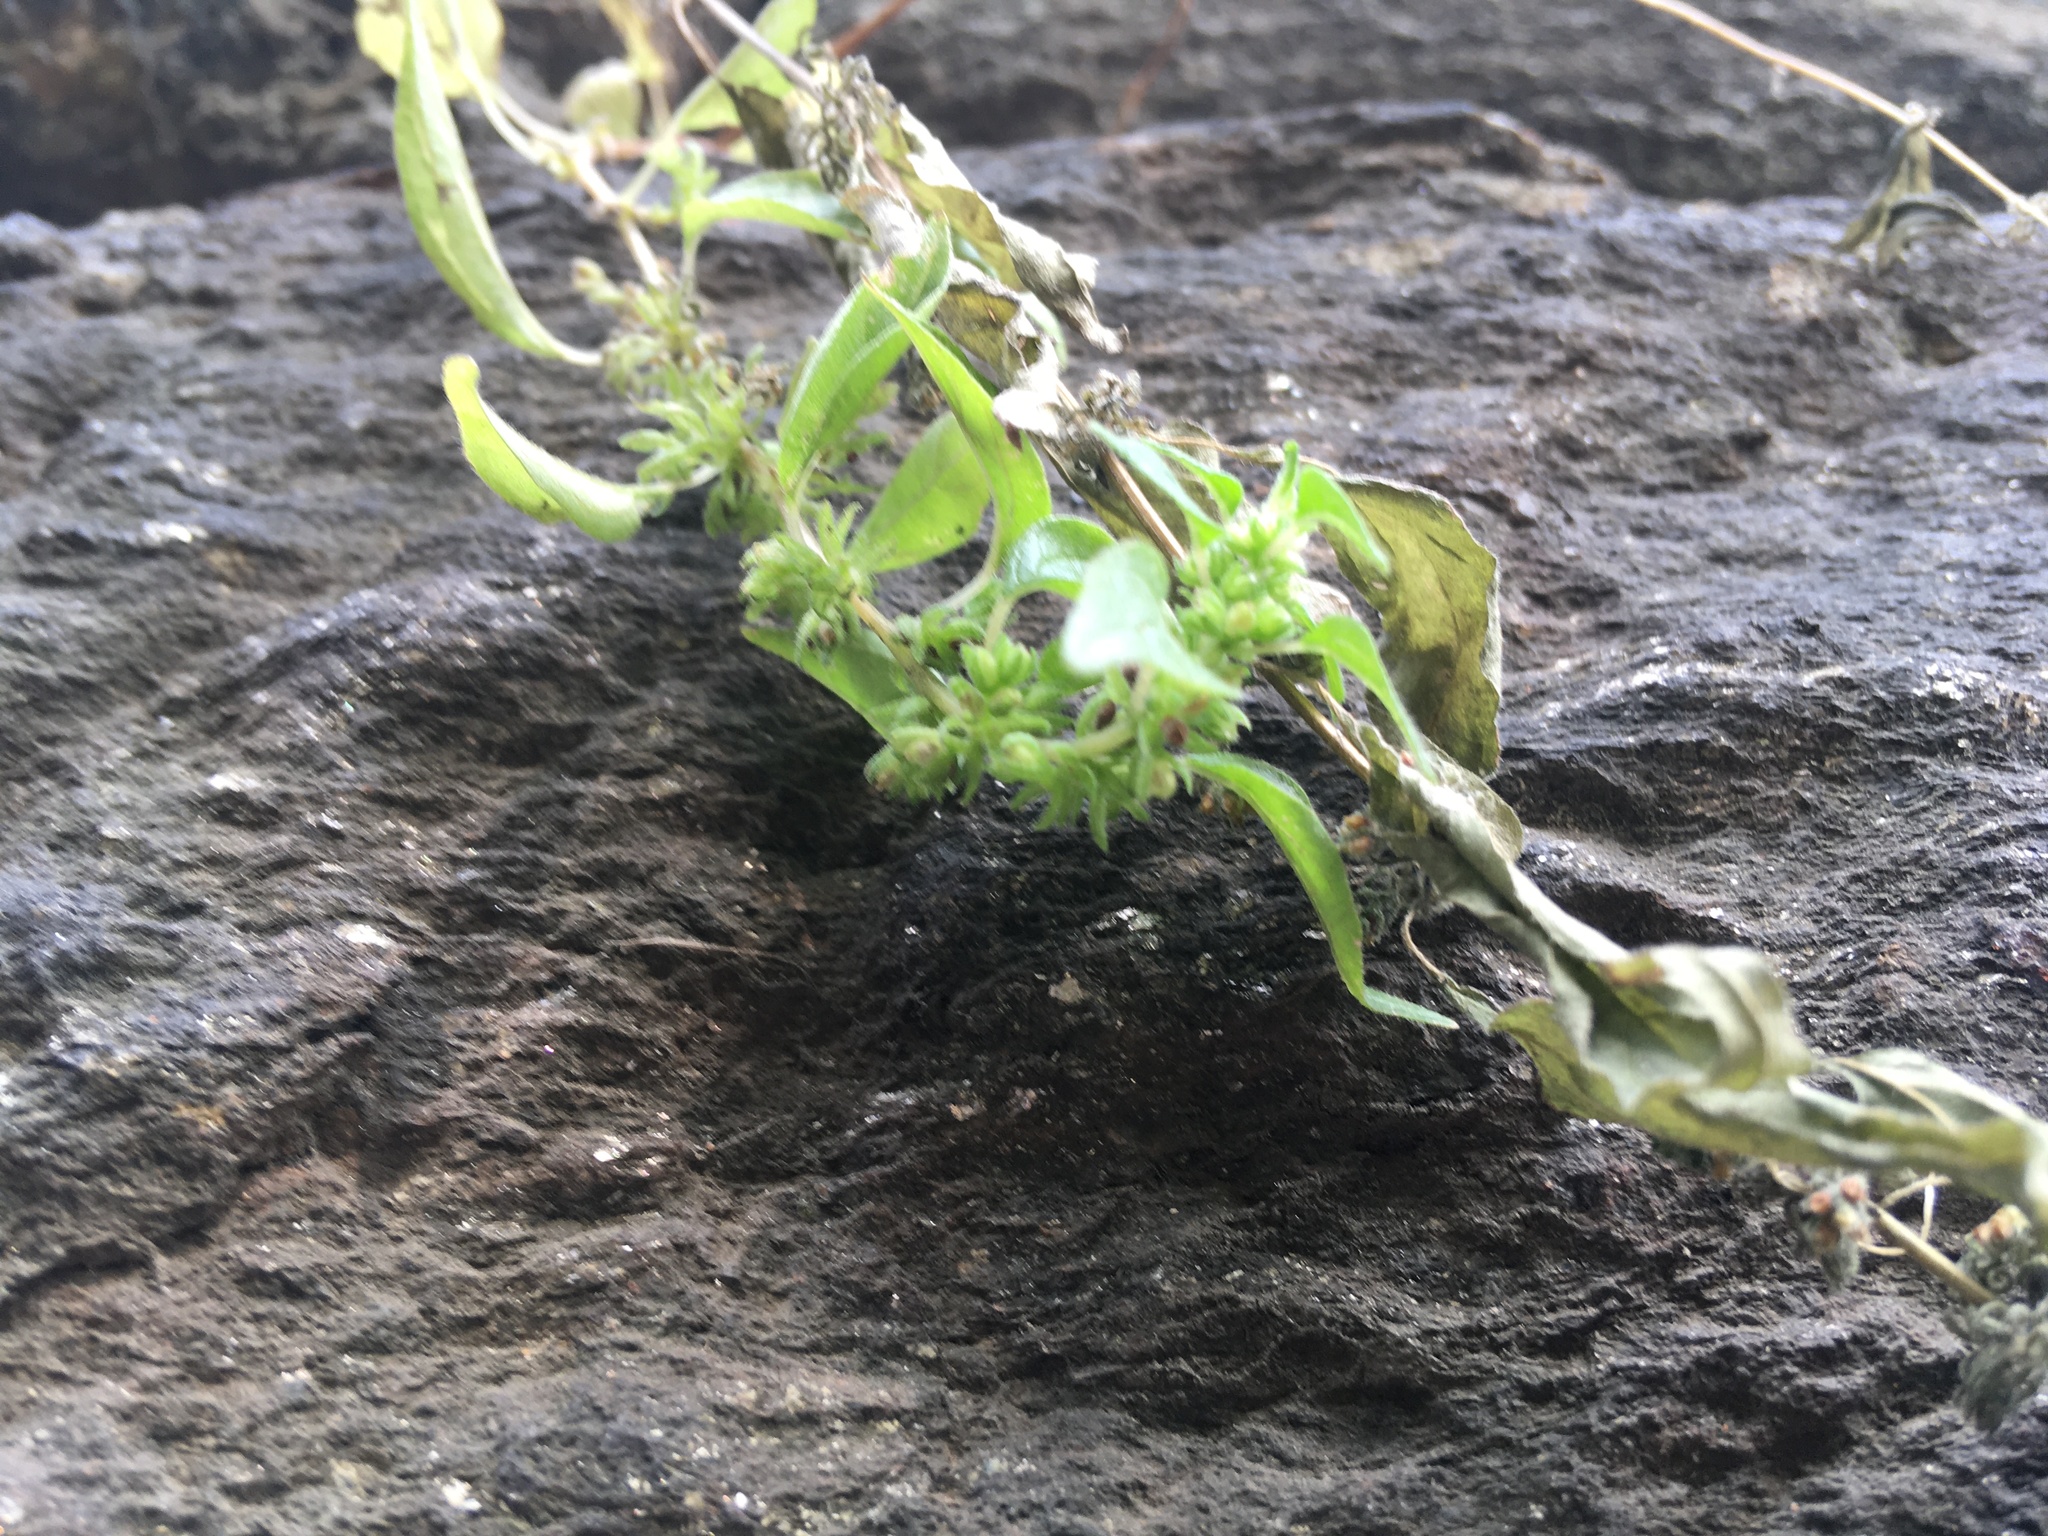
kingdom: Plantae
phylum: Tracheophyta
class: Magnoliopsida
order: Rosales
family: Urticaceae
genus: Parietaria
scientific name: Parietaria pensylvanica
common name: Pennsylvania pellitory
